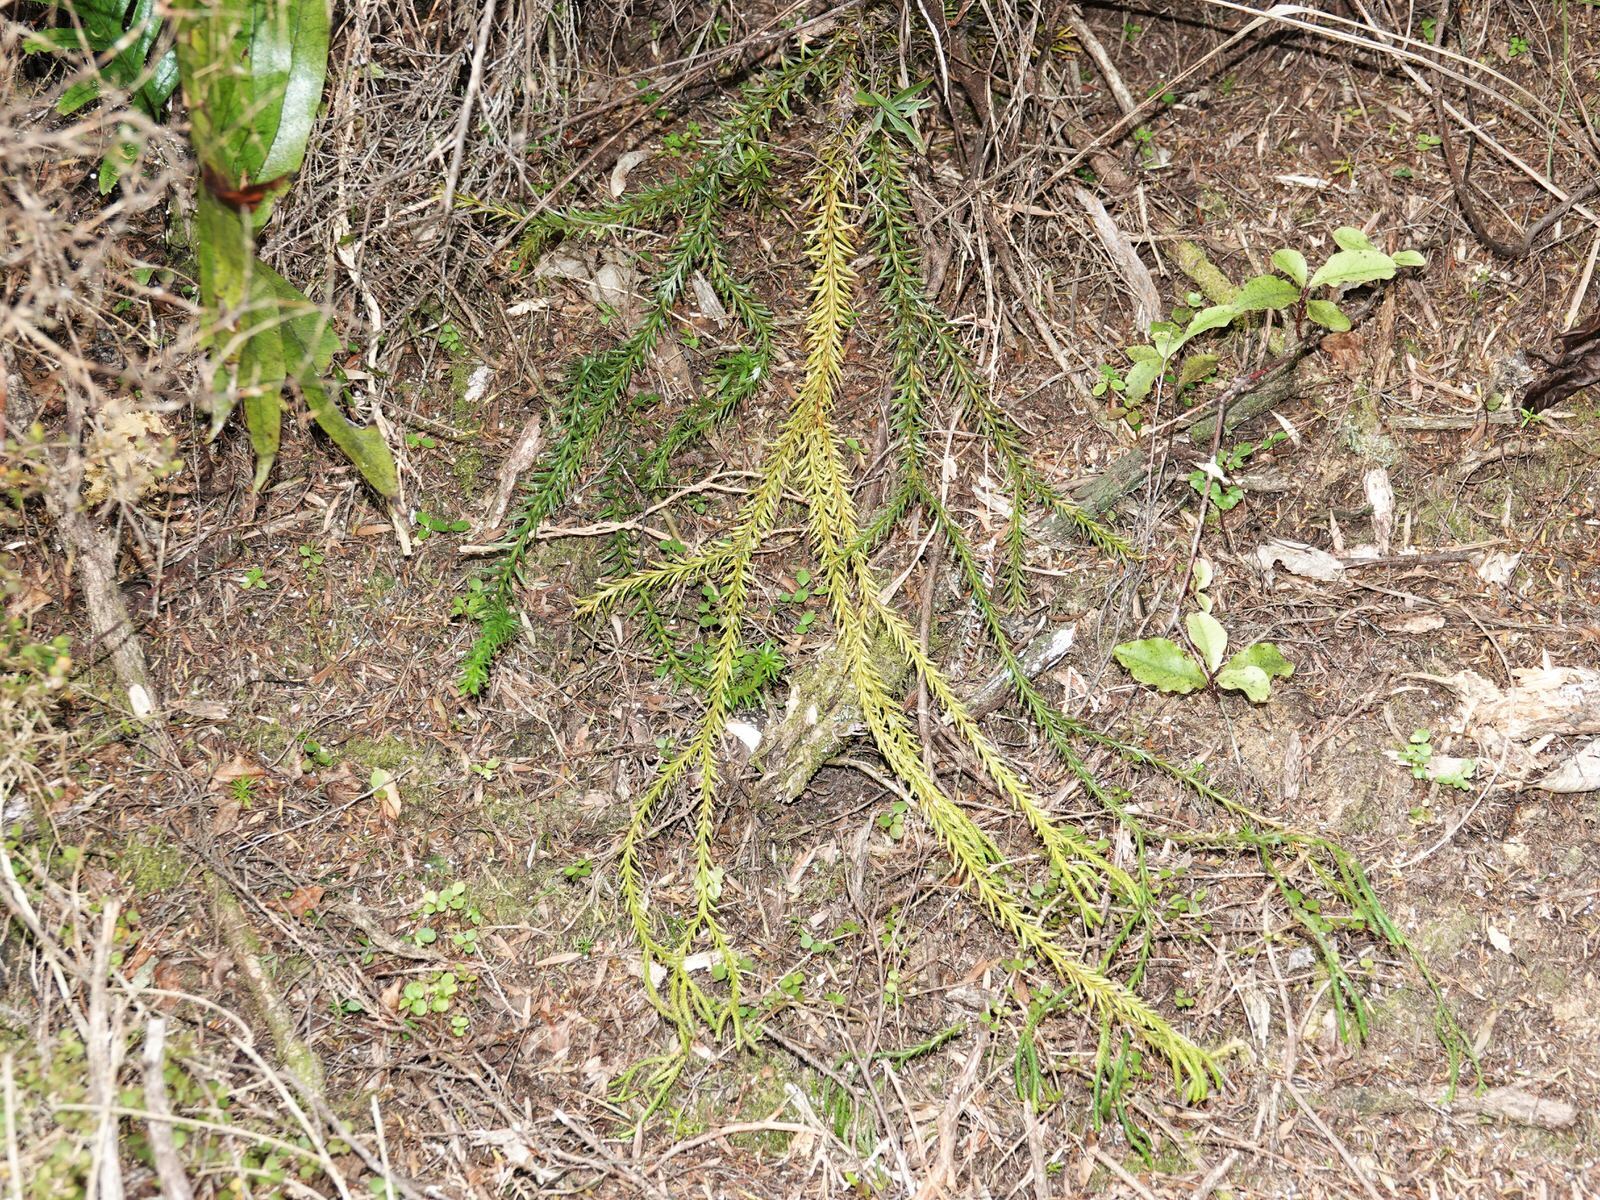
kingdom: Plantae
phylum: Tracheophyta
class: Lycopodiopsida
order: Lycopodiales
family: Lycopodiaceae
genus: Phlegmariurus
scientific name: Phlegmariurus billardierei
